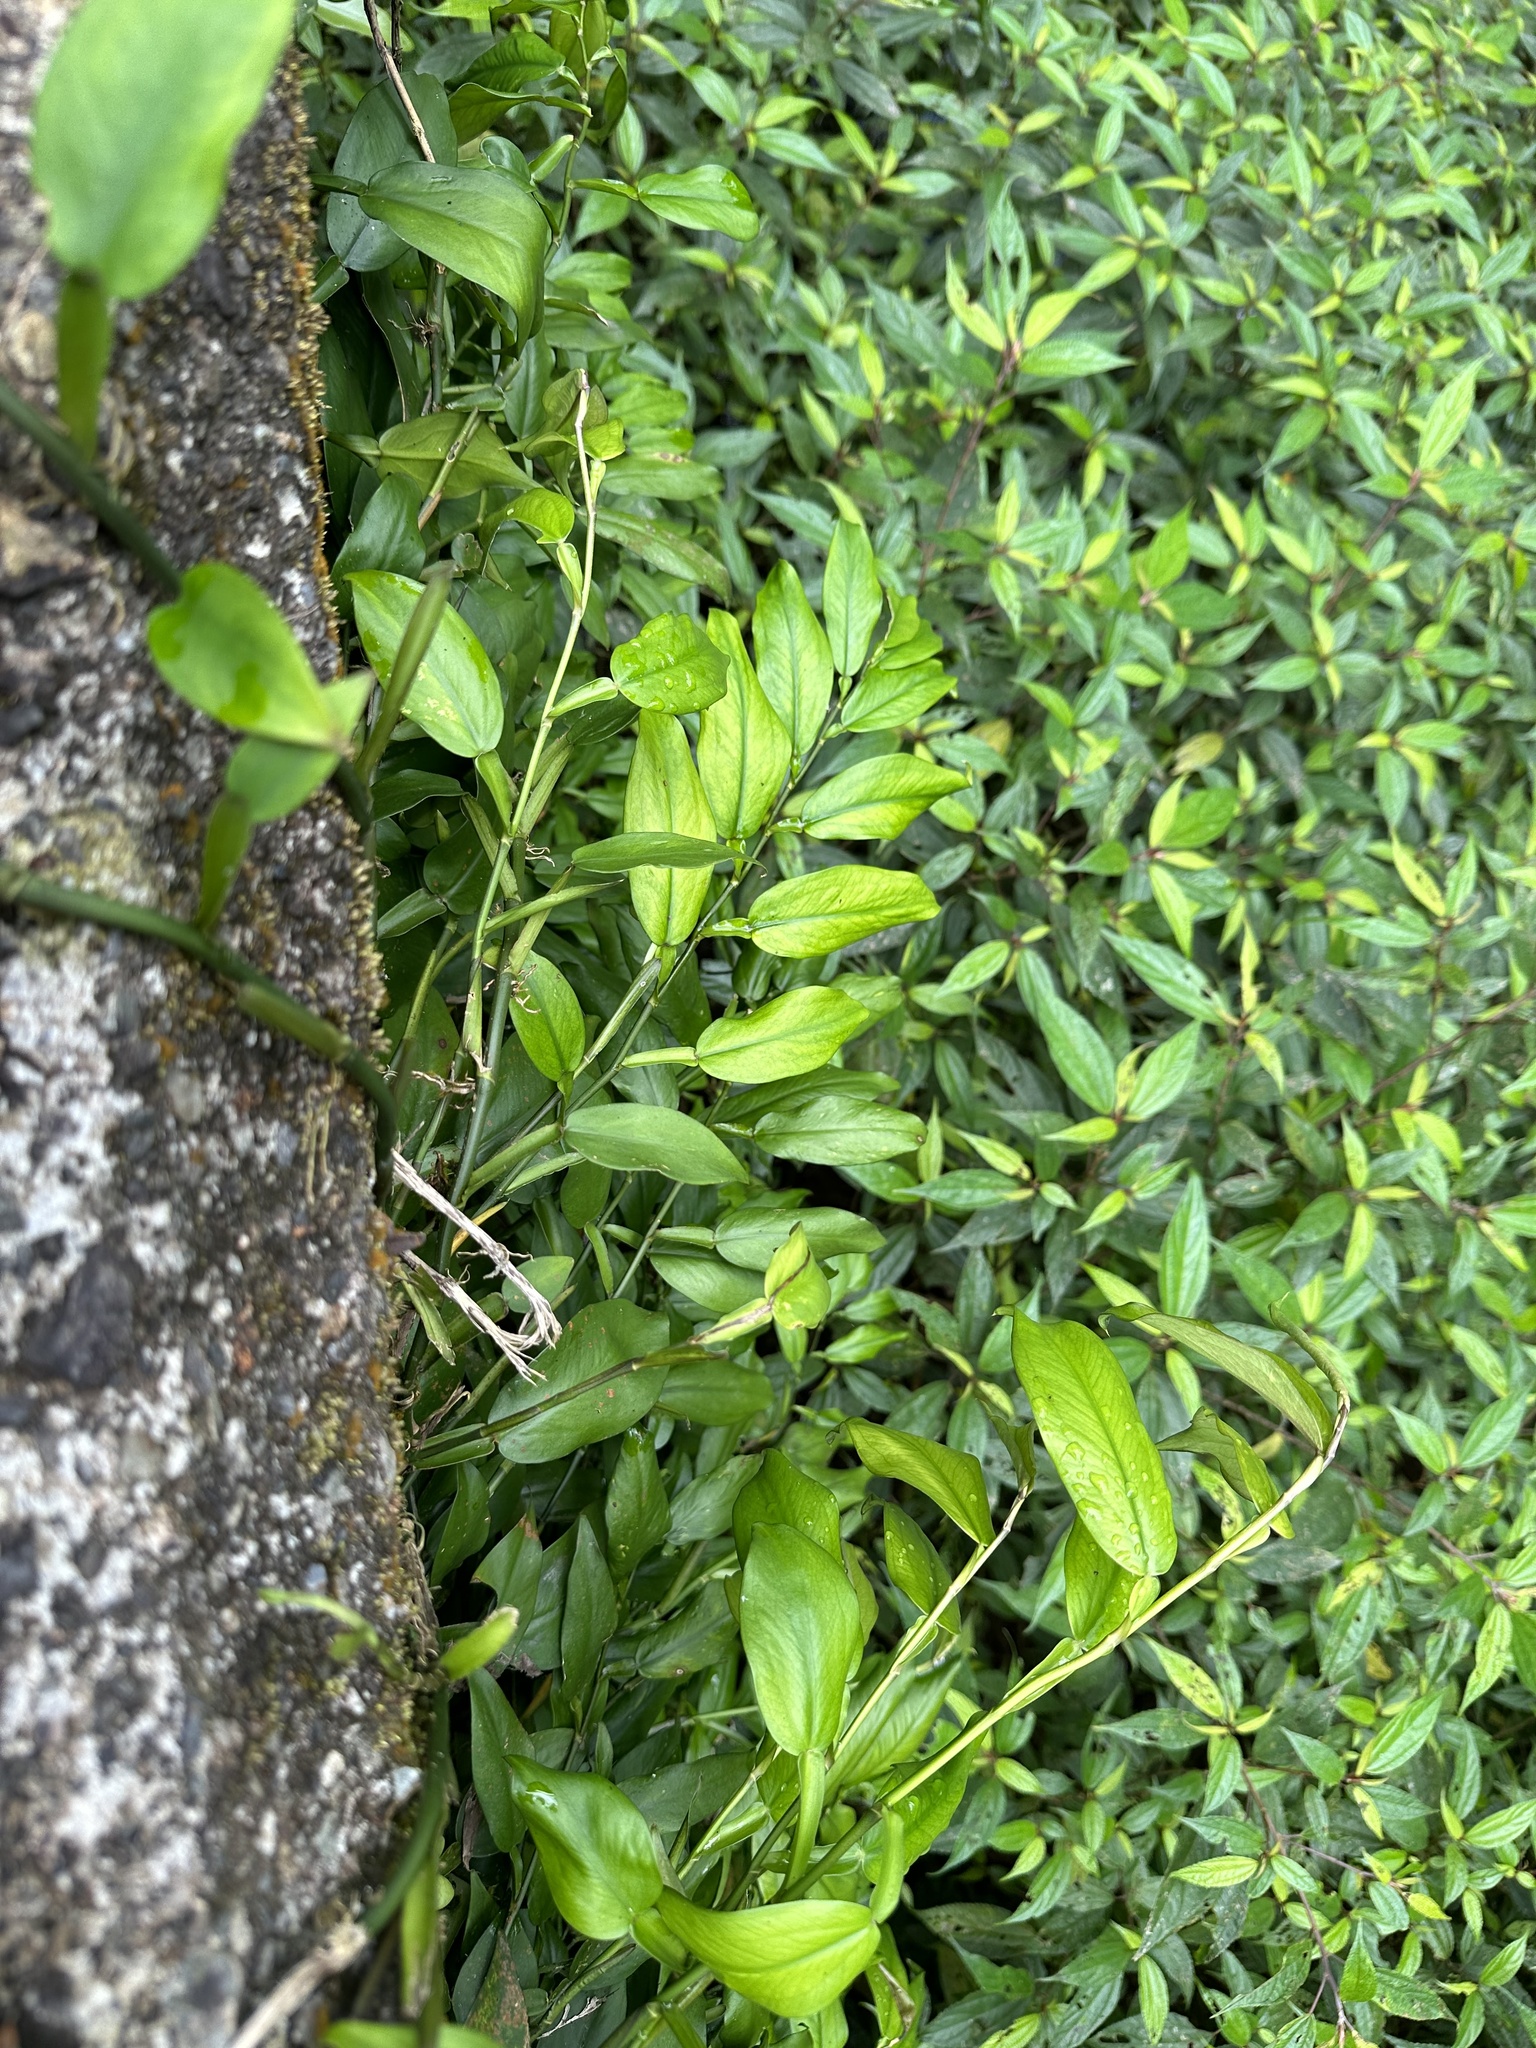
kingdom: Plantae
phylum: Tracheophyta
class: Liliopsida
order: Alismatales
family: Araceae
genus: Pothos
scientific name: Pothos chinensis
